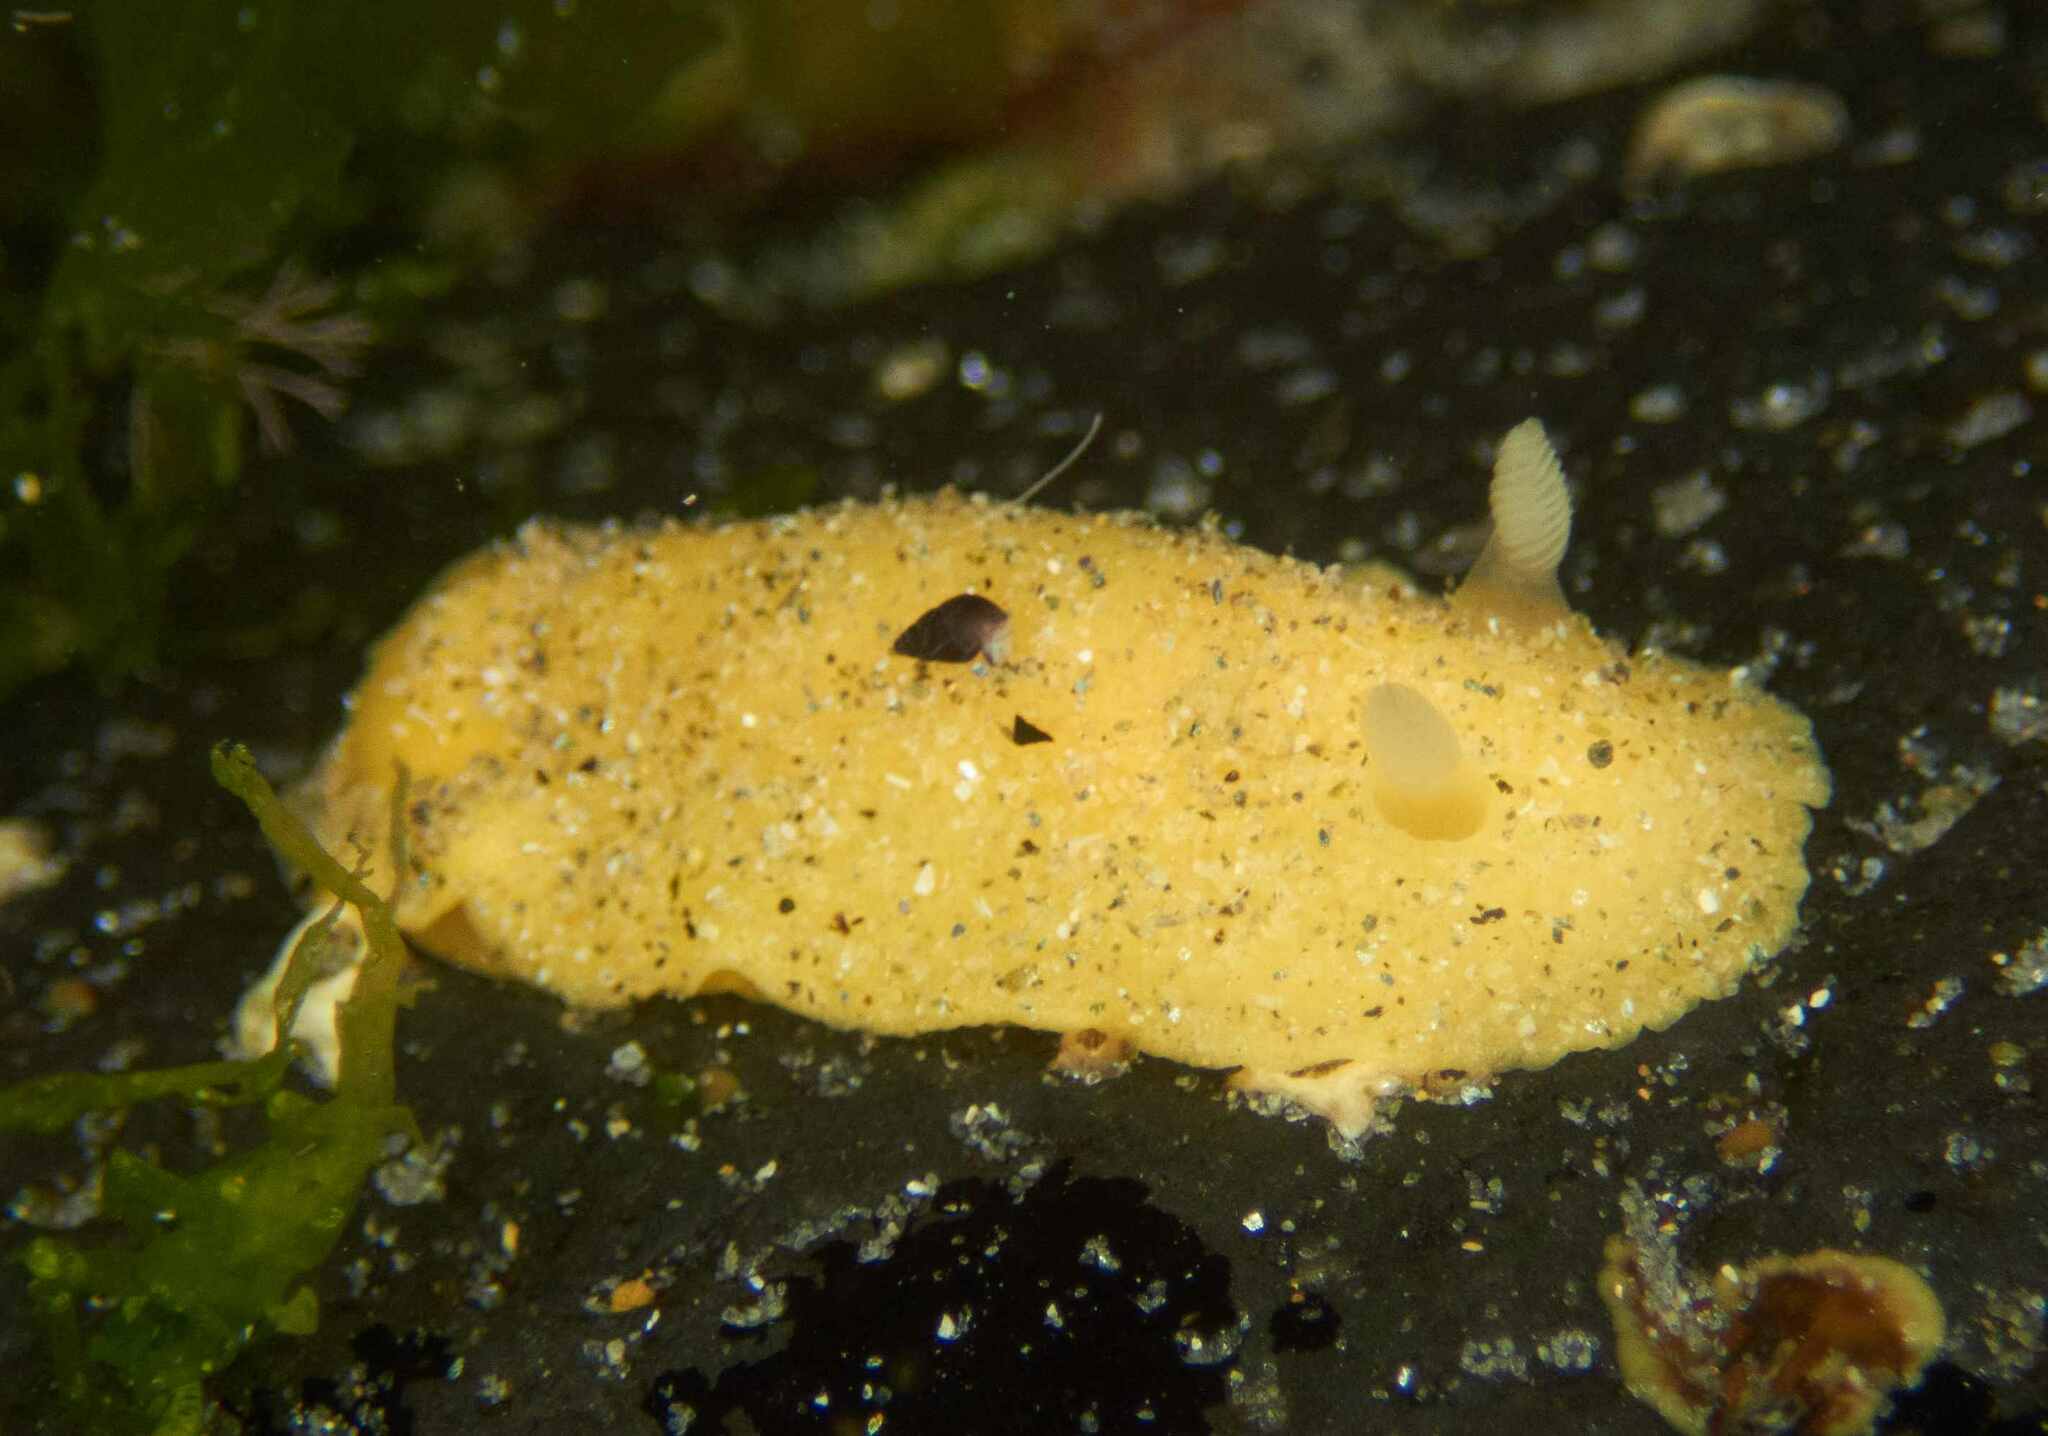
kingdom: Animalia
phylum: Mollusca
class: Gastropoda
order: Nudibranchia
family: Dorididae
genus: Doriopsis
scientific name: Doriopsis granulosa
